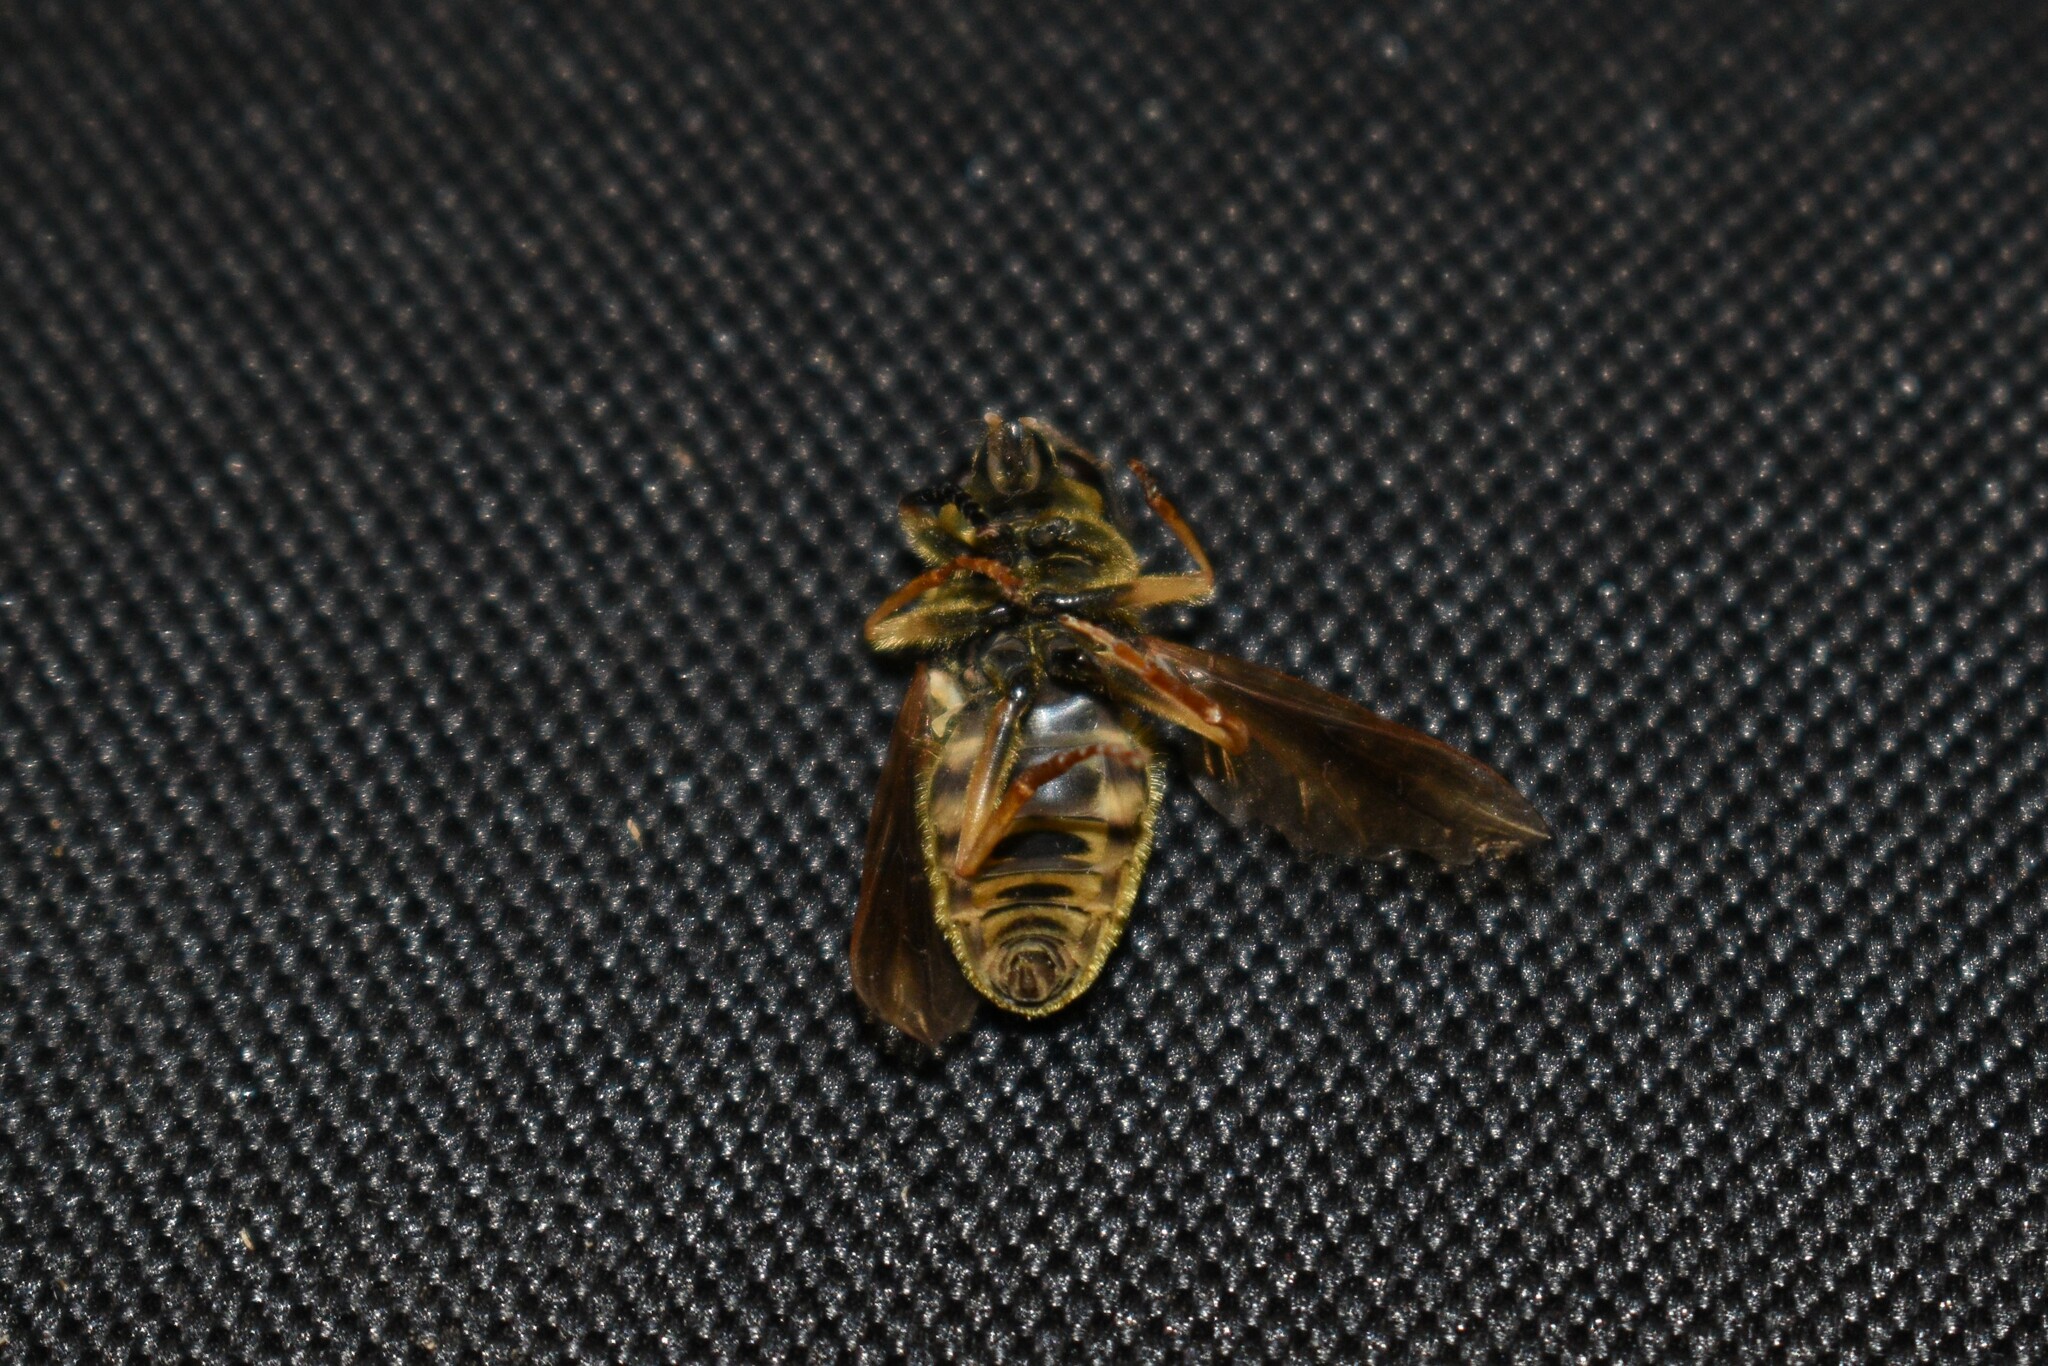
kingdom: Animalia
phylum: Arthropoda
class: Insecta
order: Diptera
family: Syrphidae
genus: Temnostoma
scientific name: Temnostoma alternans
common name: Wasp-like falsehorn
